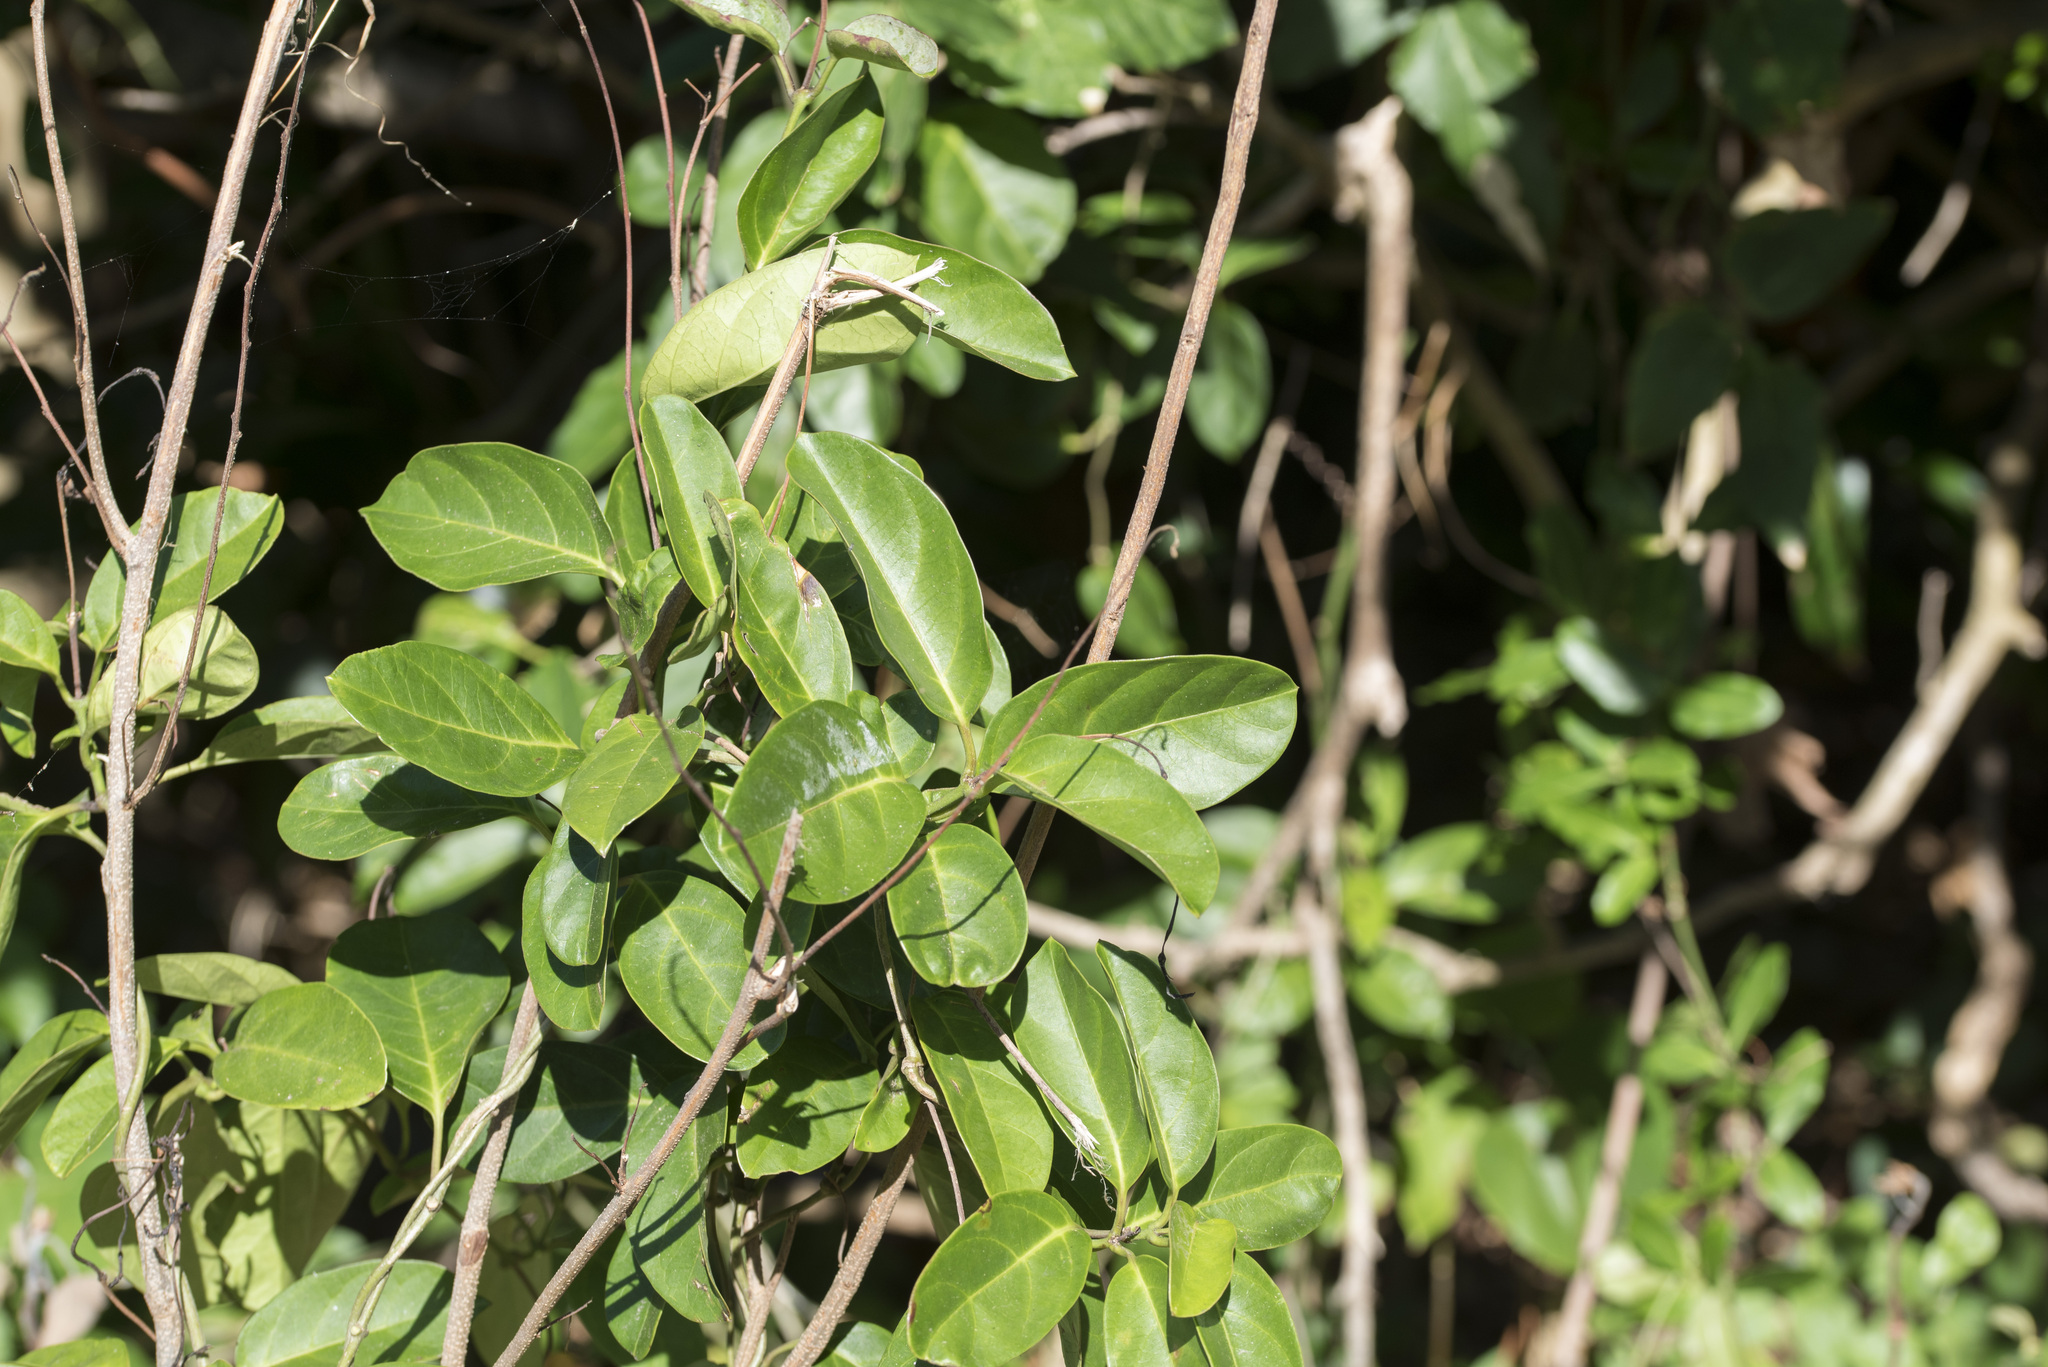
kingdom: Plantae
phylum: Tracheophyta
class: Magnoliopsida
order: Gentianales
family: Apocynaceae
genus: Parsonsia
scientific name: Parsonsia alboflavescens
